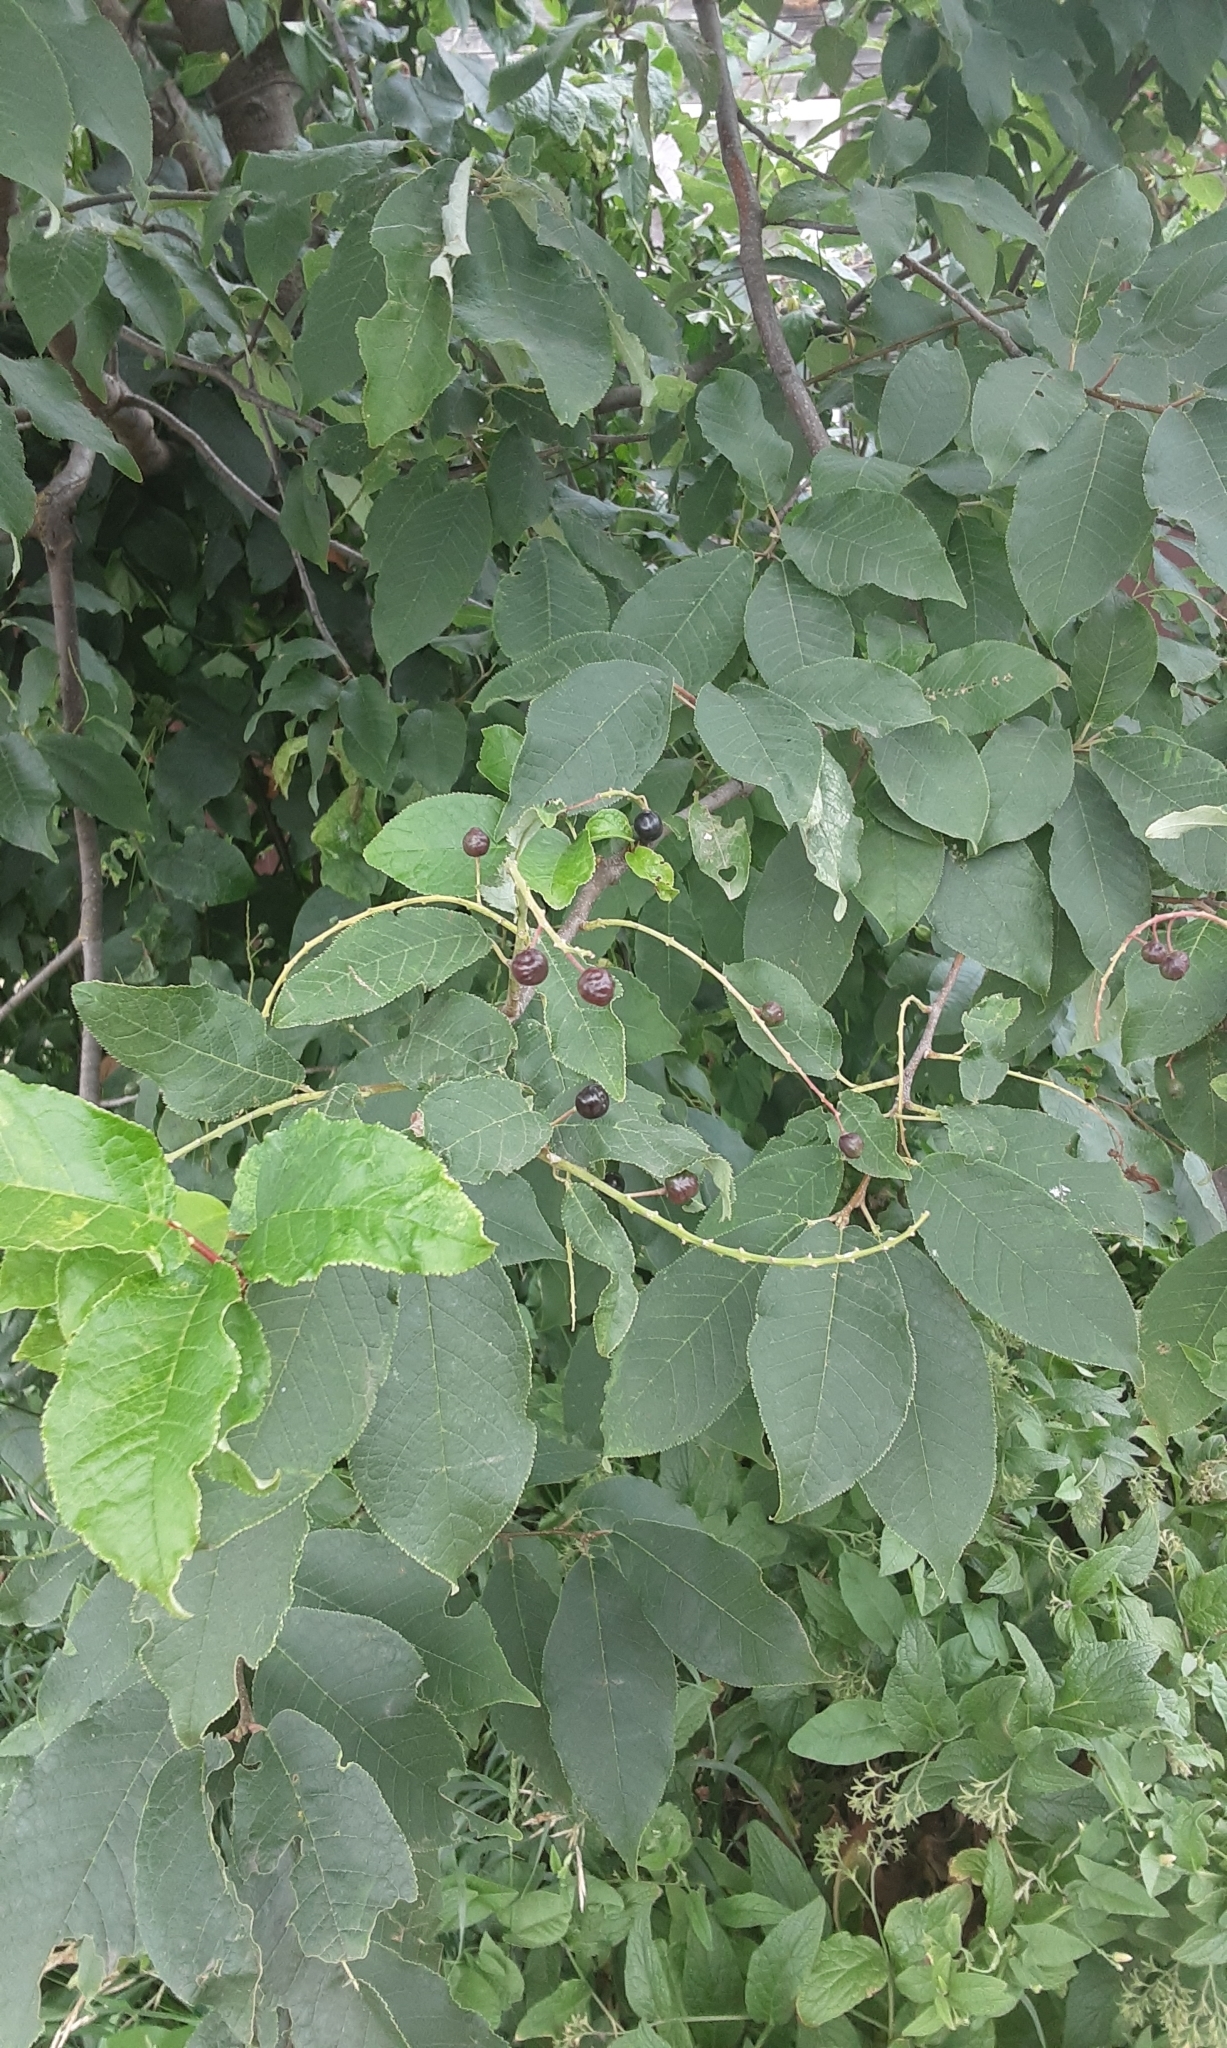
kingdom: Plantae
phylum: Tracheophyta
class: Magnoliopsida
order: Rosales
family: Rosaceae
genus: Prunus
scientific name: Prunus padus
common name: Bird cherry
